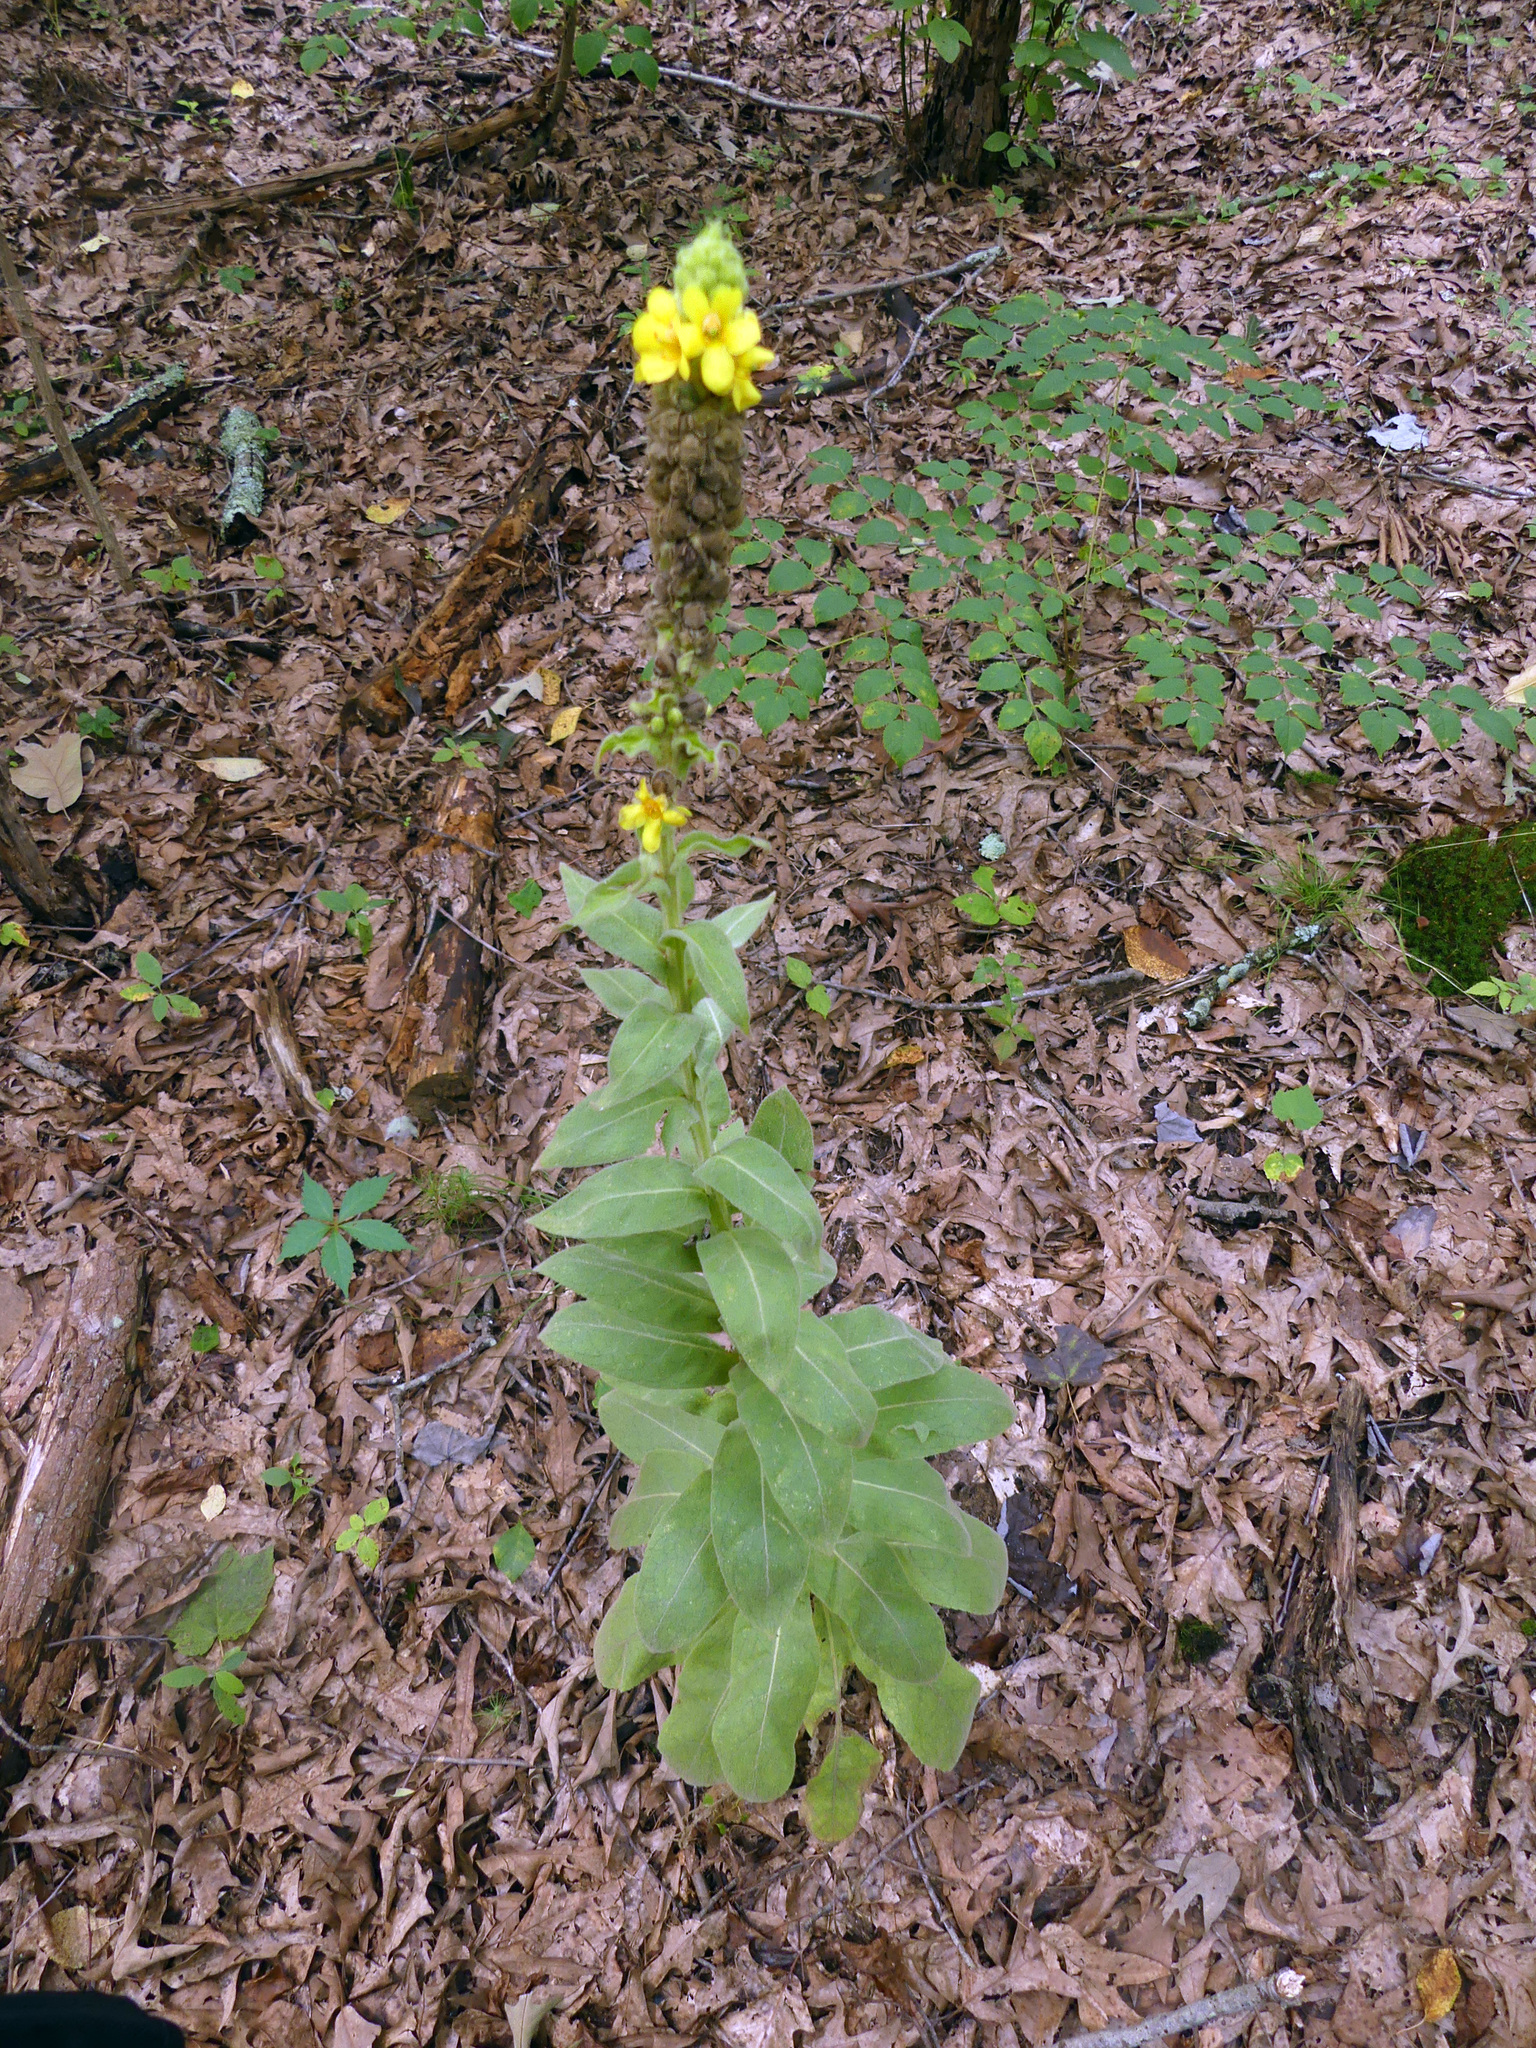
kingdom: Plantae
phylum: Tracheophyta
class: Magnoliopsida
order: Lamiales
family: Scrophulariaceae
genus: Verbascum
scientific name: Verbascum thapsus
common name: Common mullein
